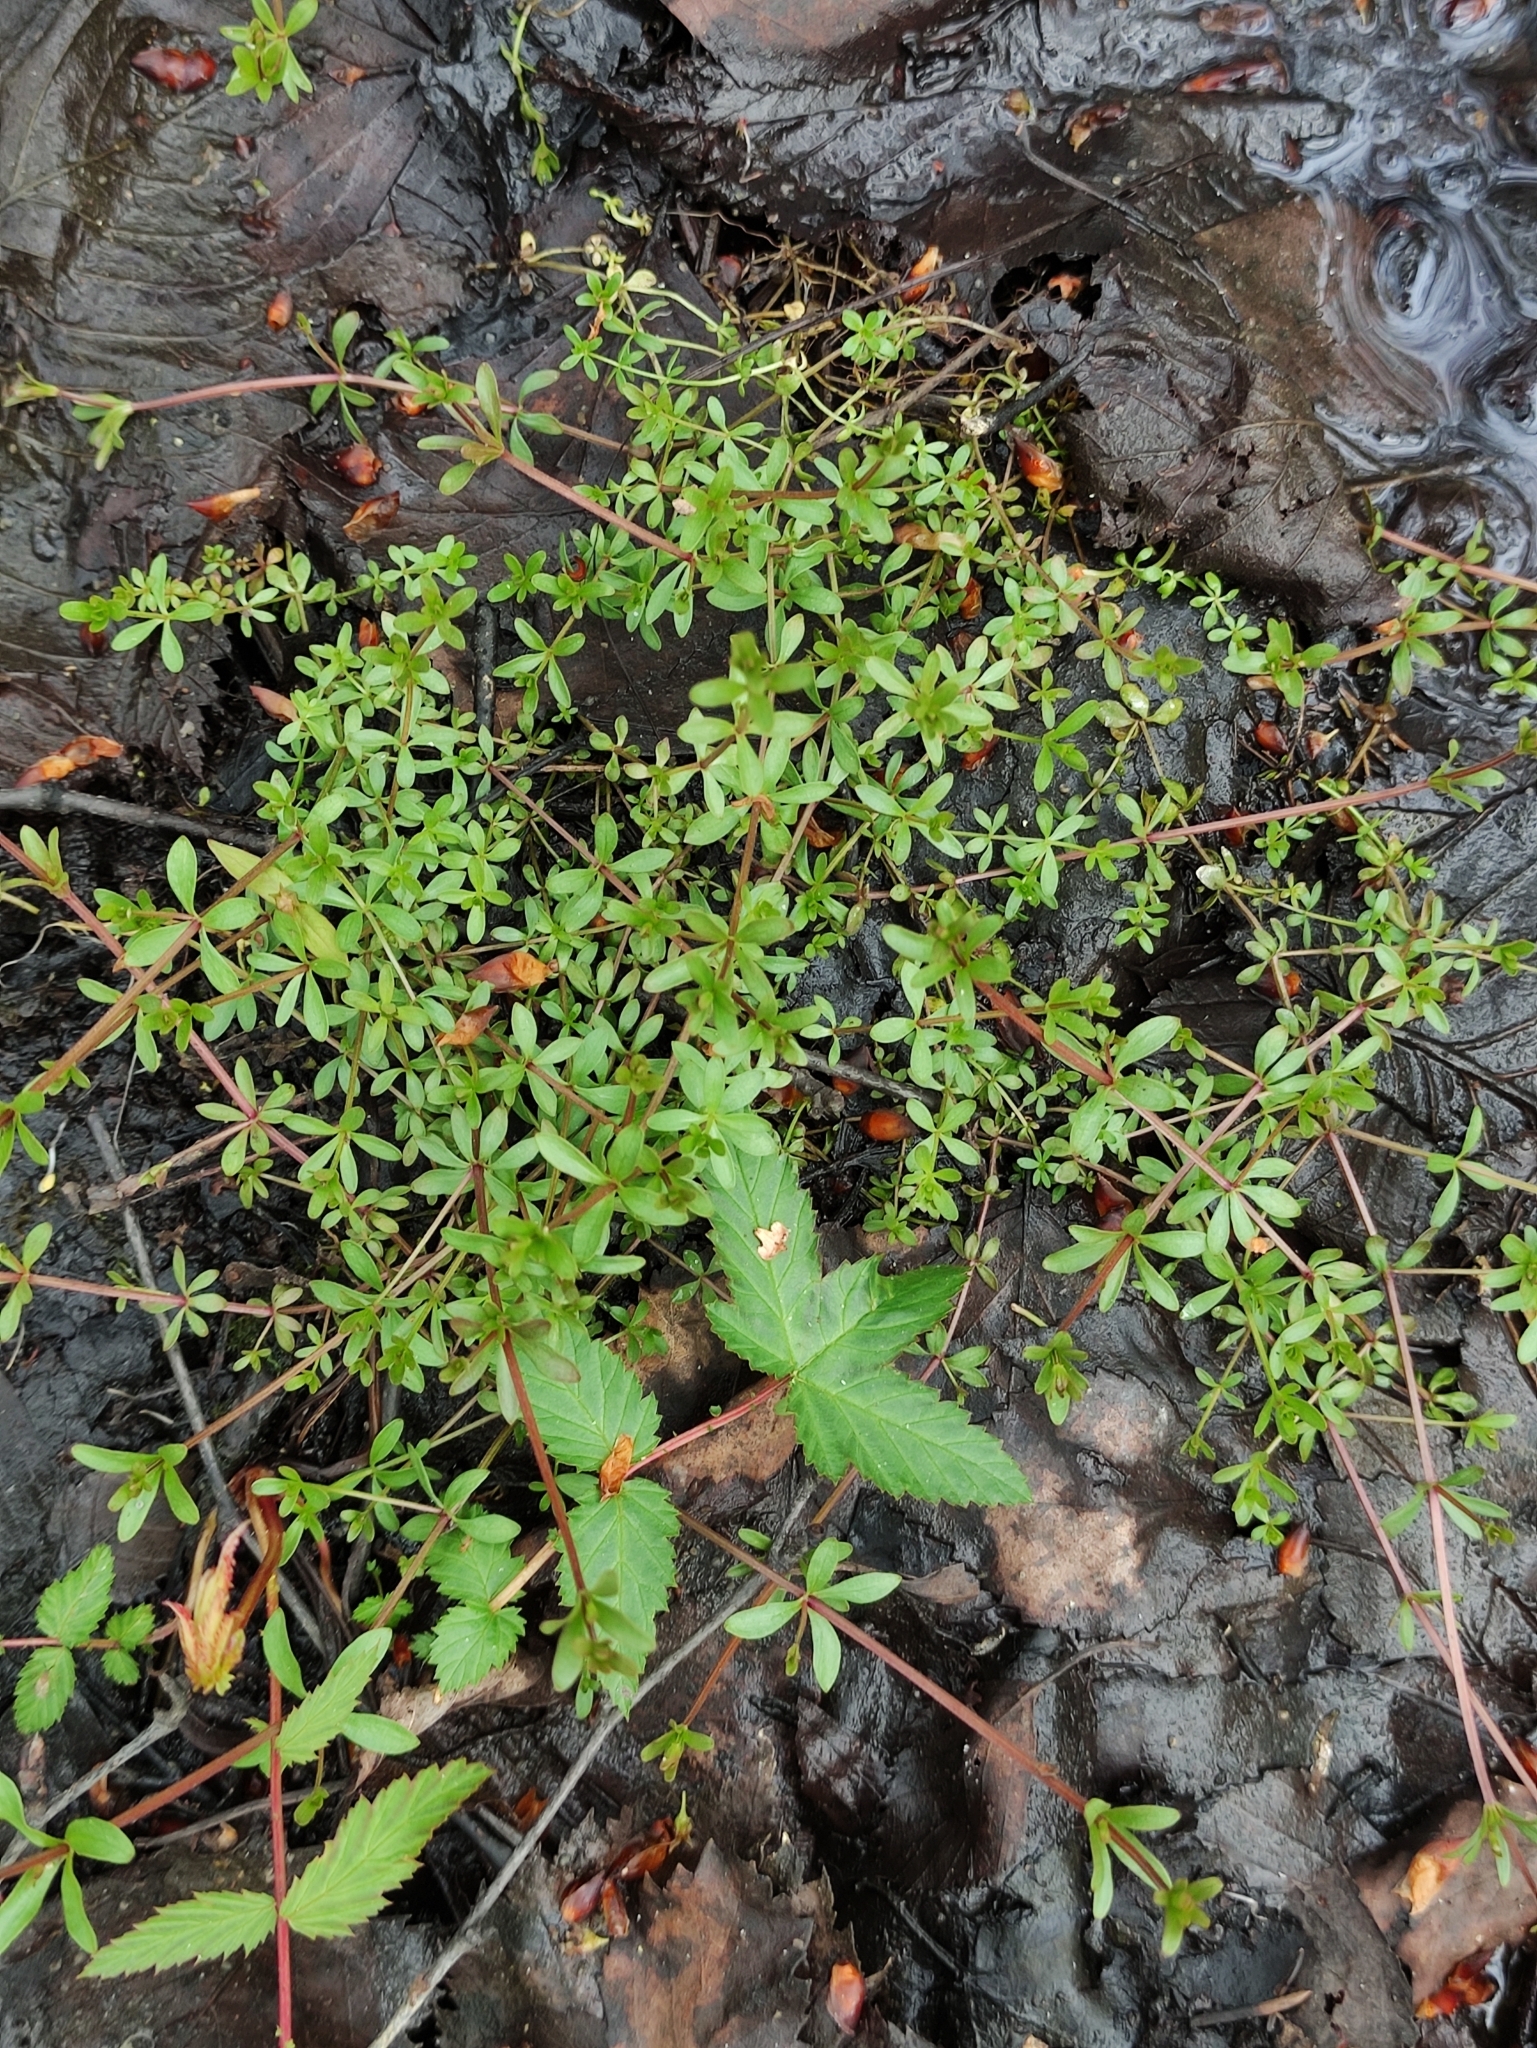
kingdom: Plantae
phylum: Tracheophyta
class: Magnoliopsida
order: Gentianales
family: Rubiaceae
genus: Galium
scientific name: Galium palustre
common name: Common marsh-bedstraw
